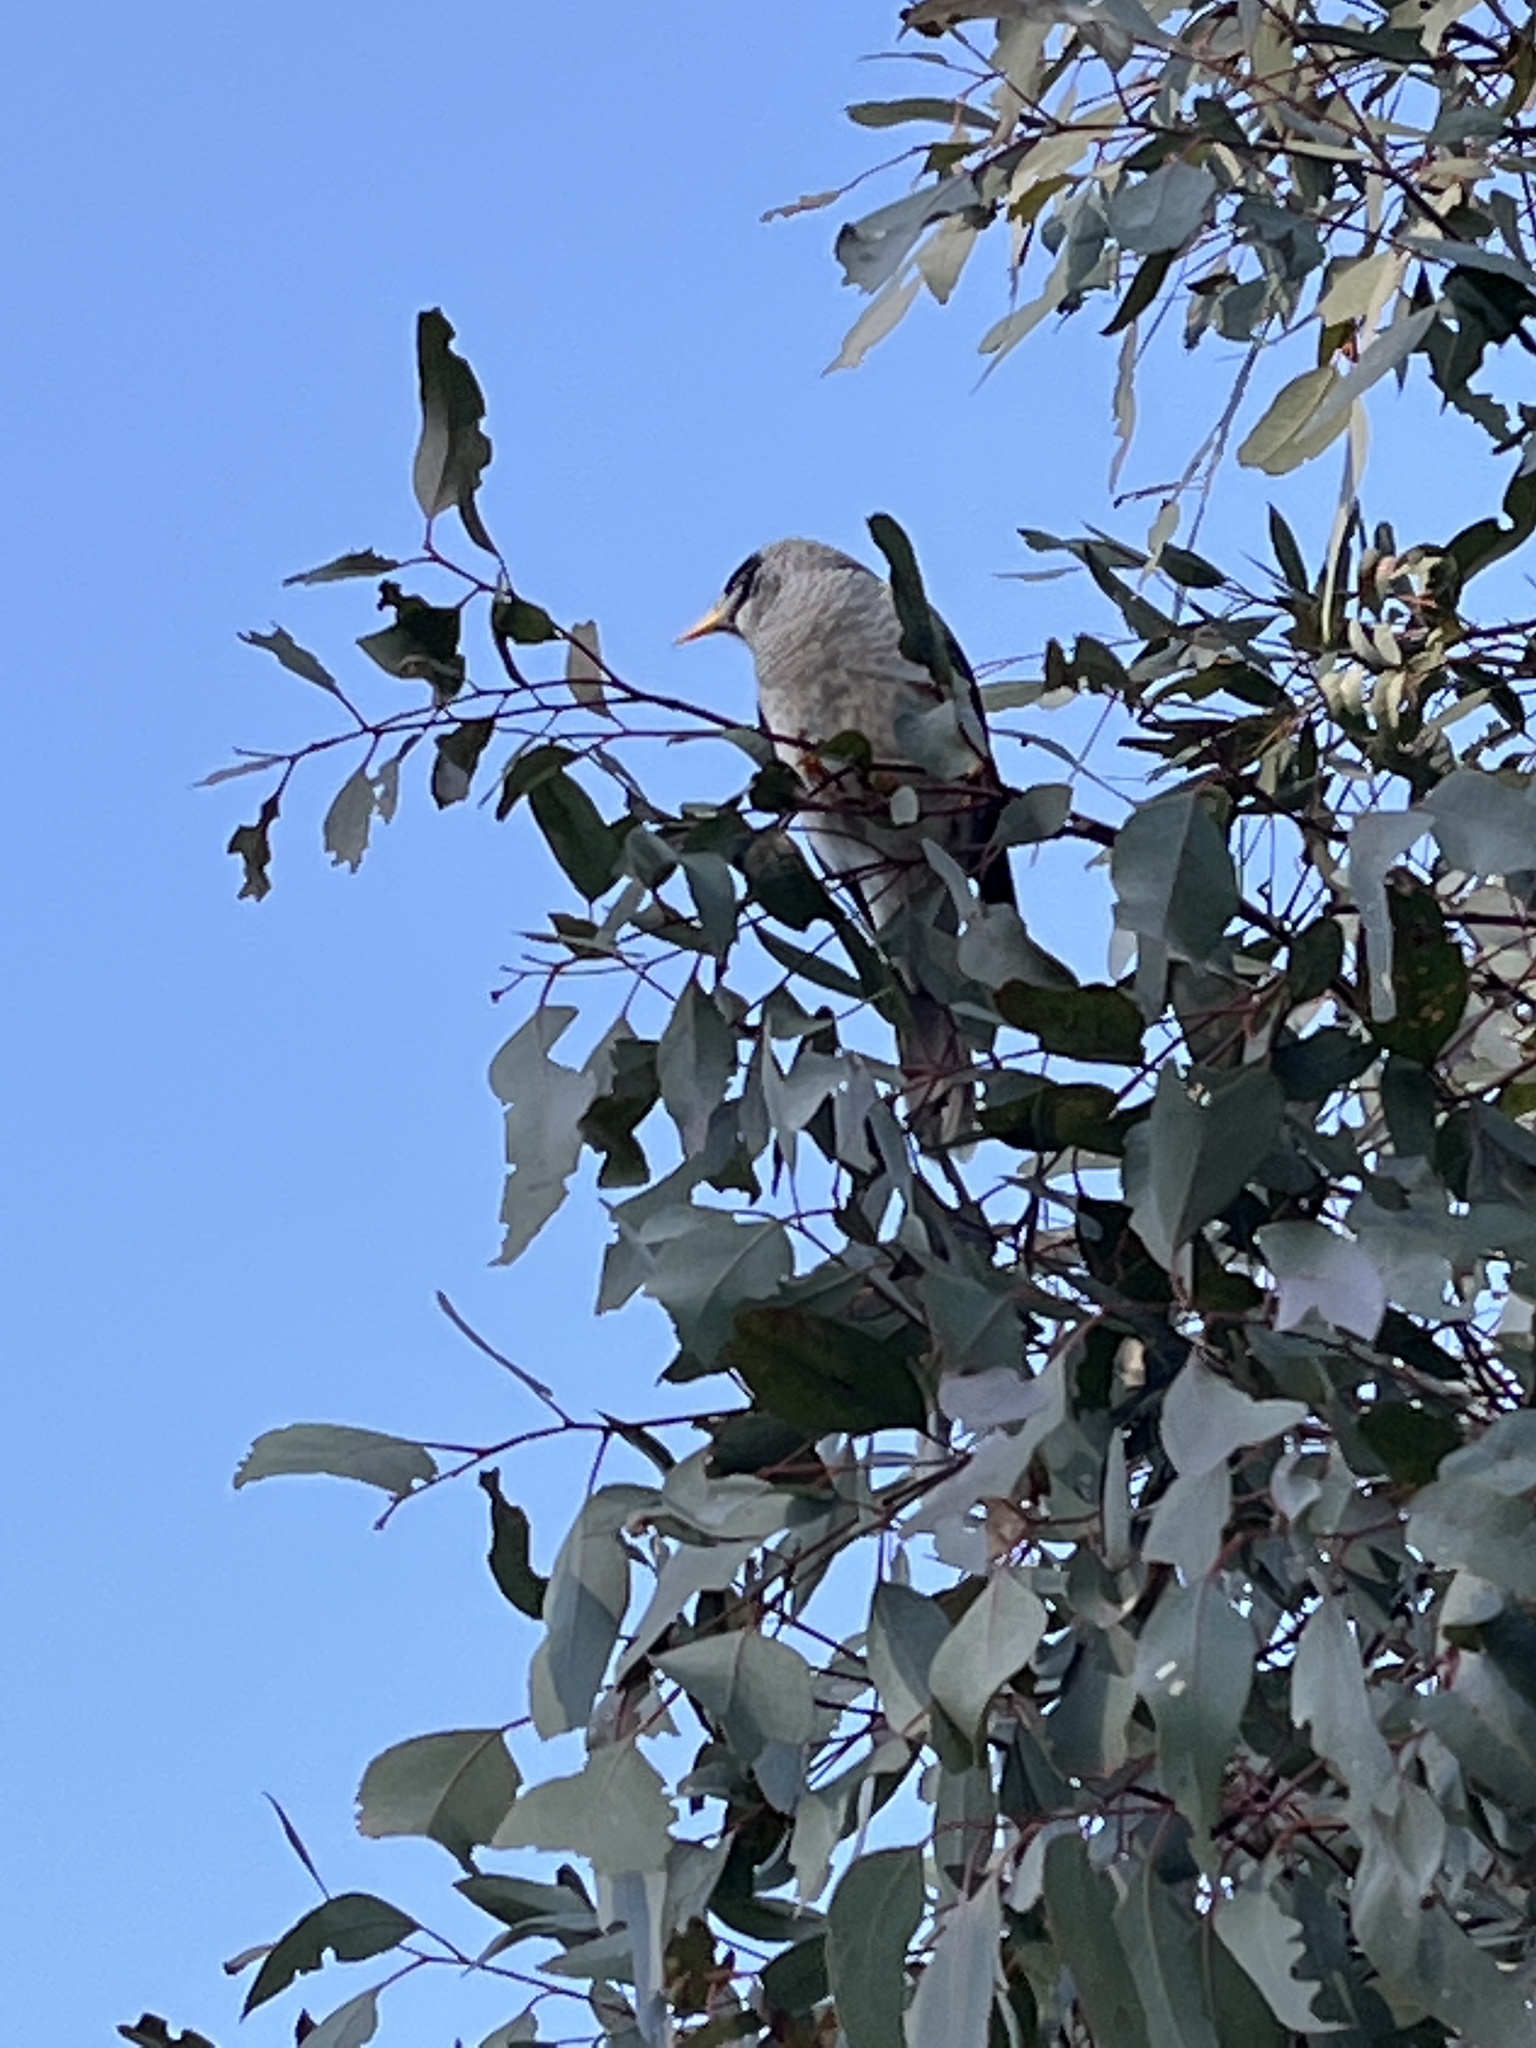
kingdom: Animalia
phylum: Chordata
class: Aves
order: Passeriformes
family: Meliphagidae
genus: Manorina
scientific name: Manorina melanocephala
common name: Noisy miner
